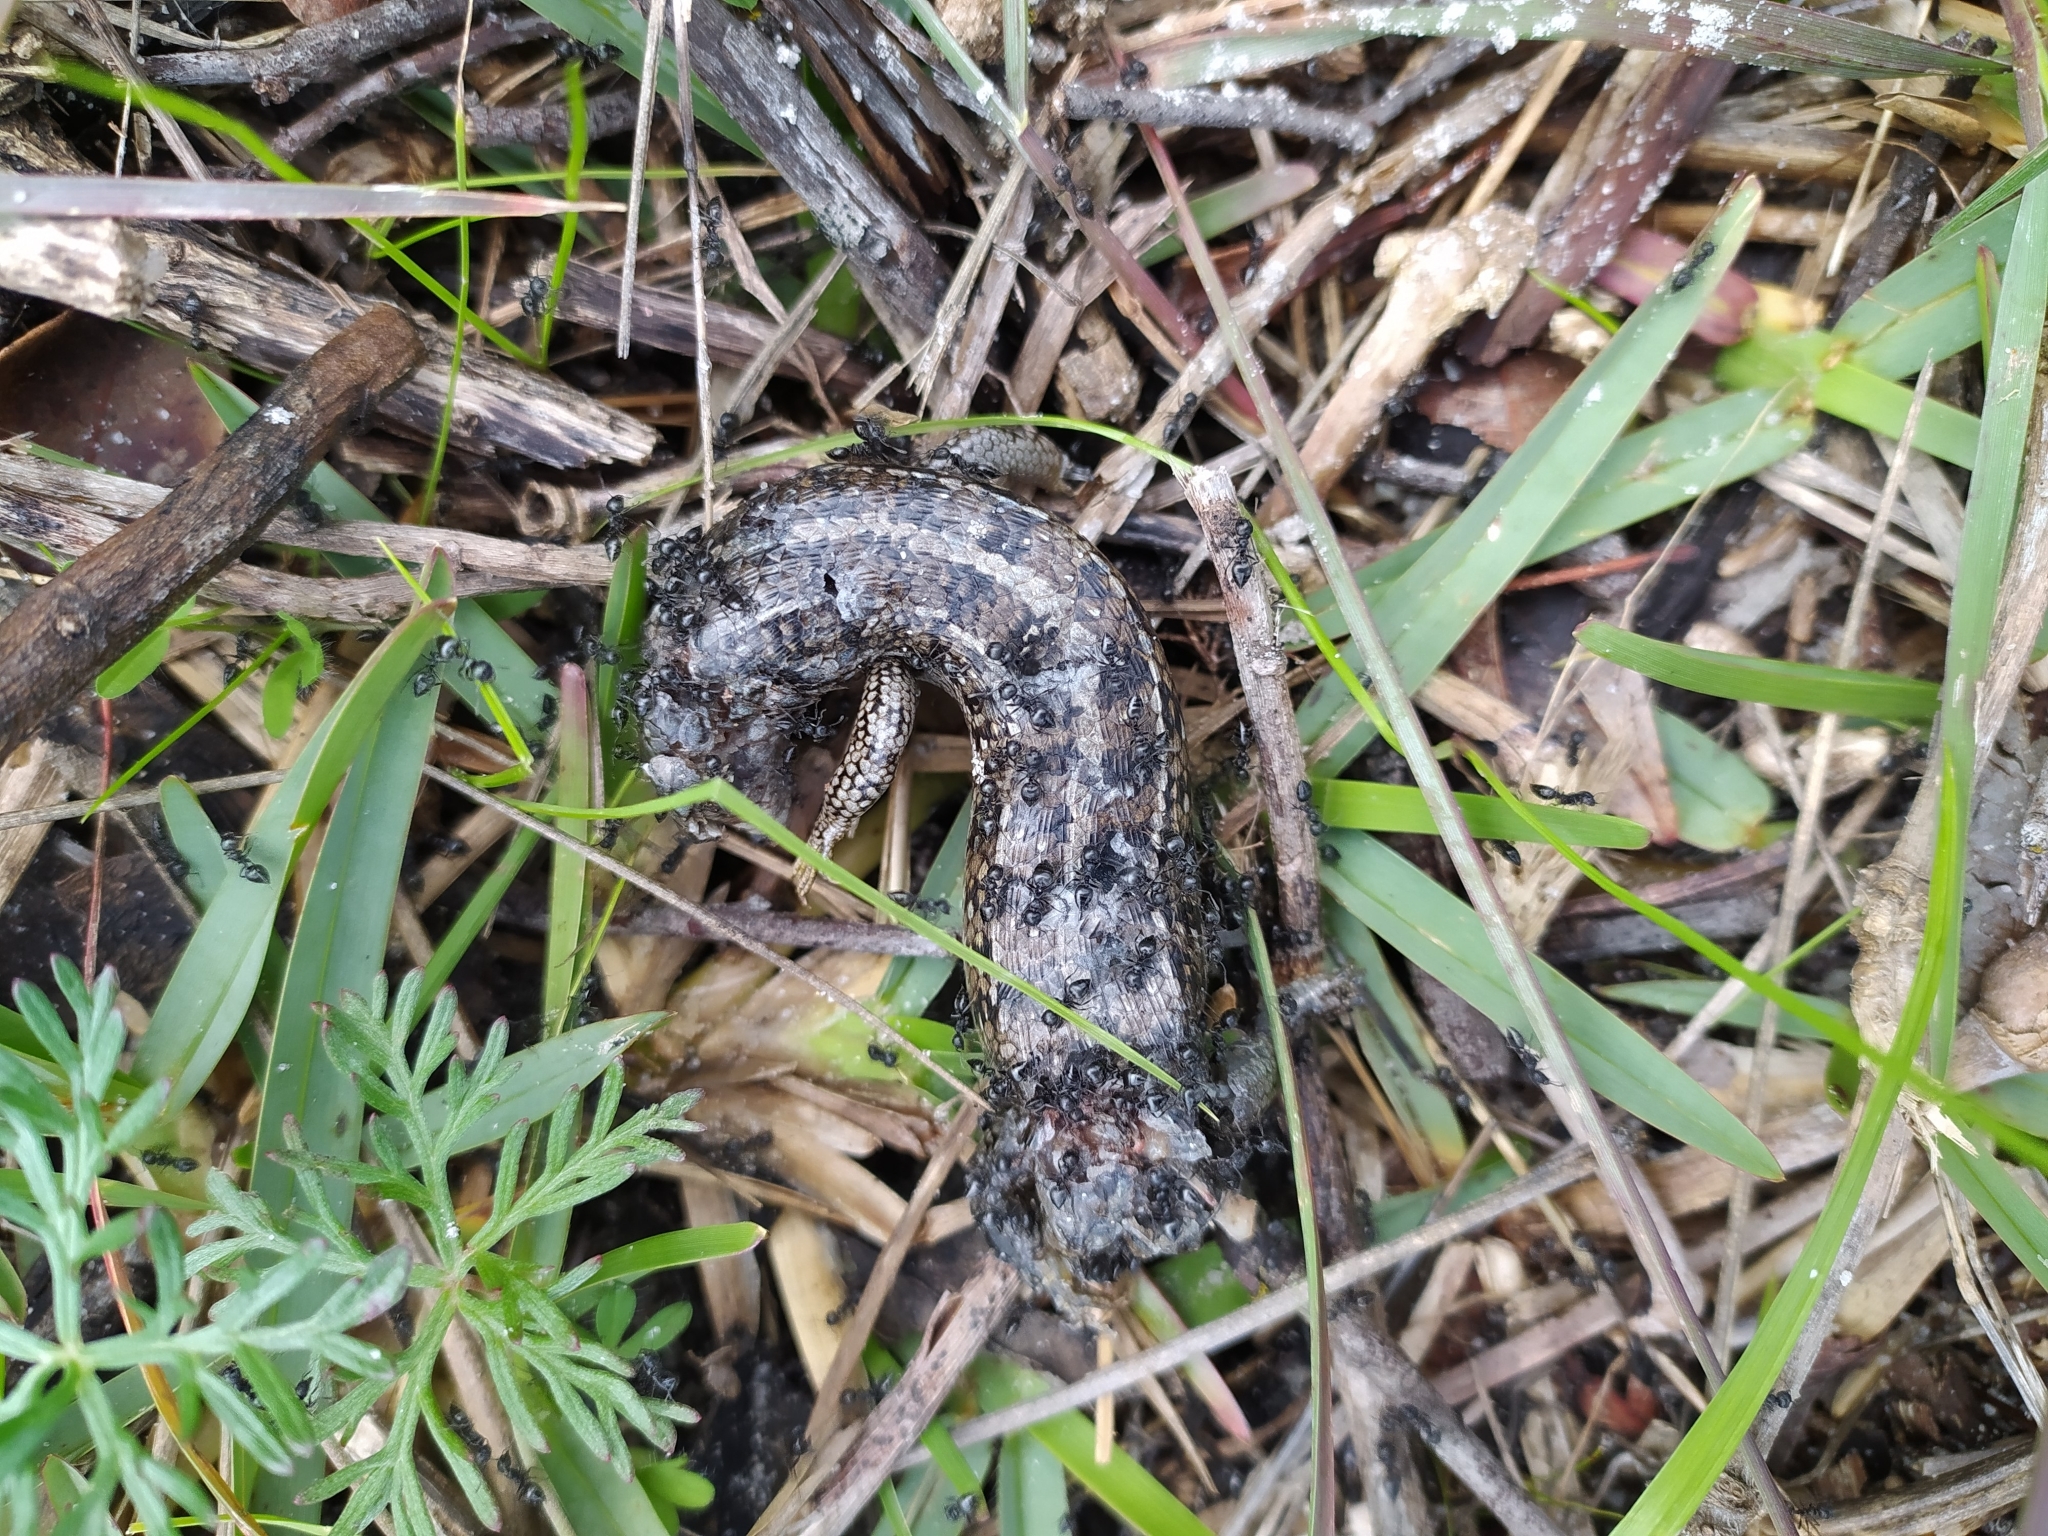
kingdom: Animalia
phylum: Chordata
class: Squamata
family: Scincidae
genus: Trachylepis
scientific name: Trachylepis capensis
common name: Cape skink
